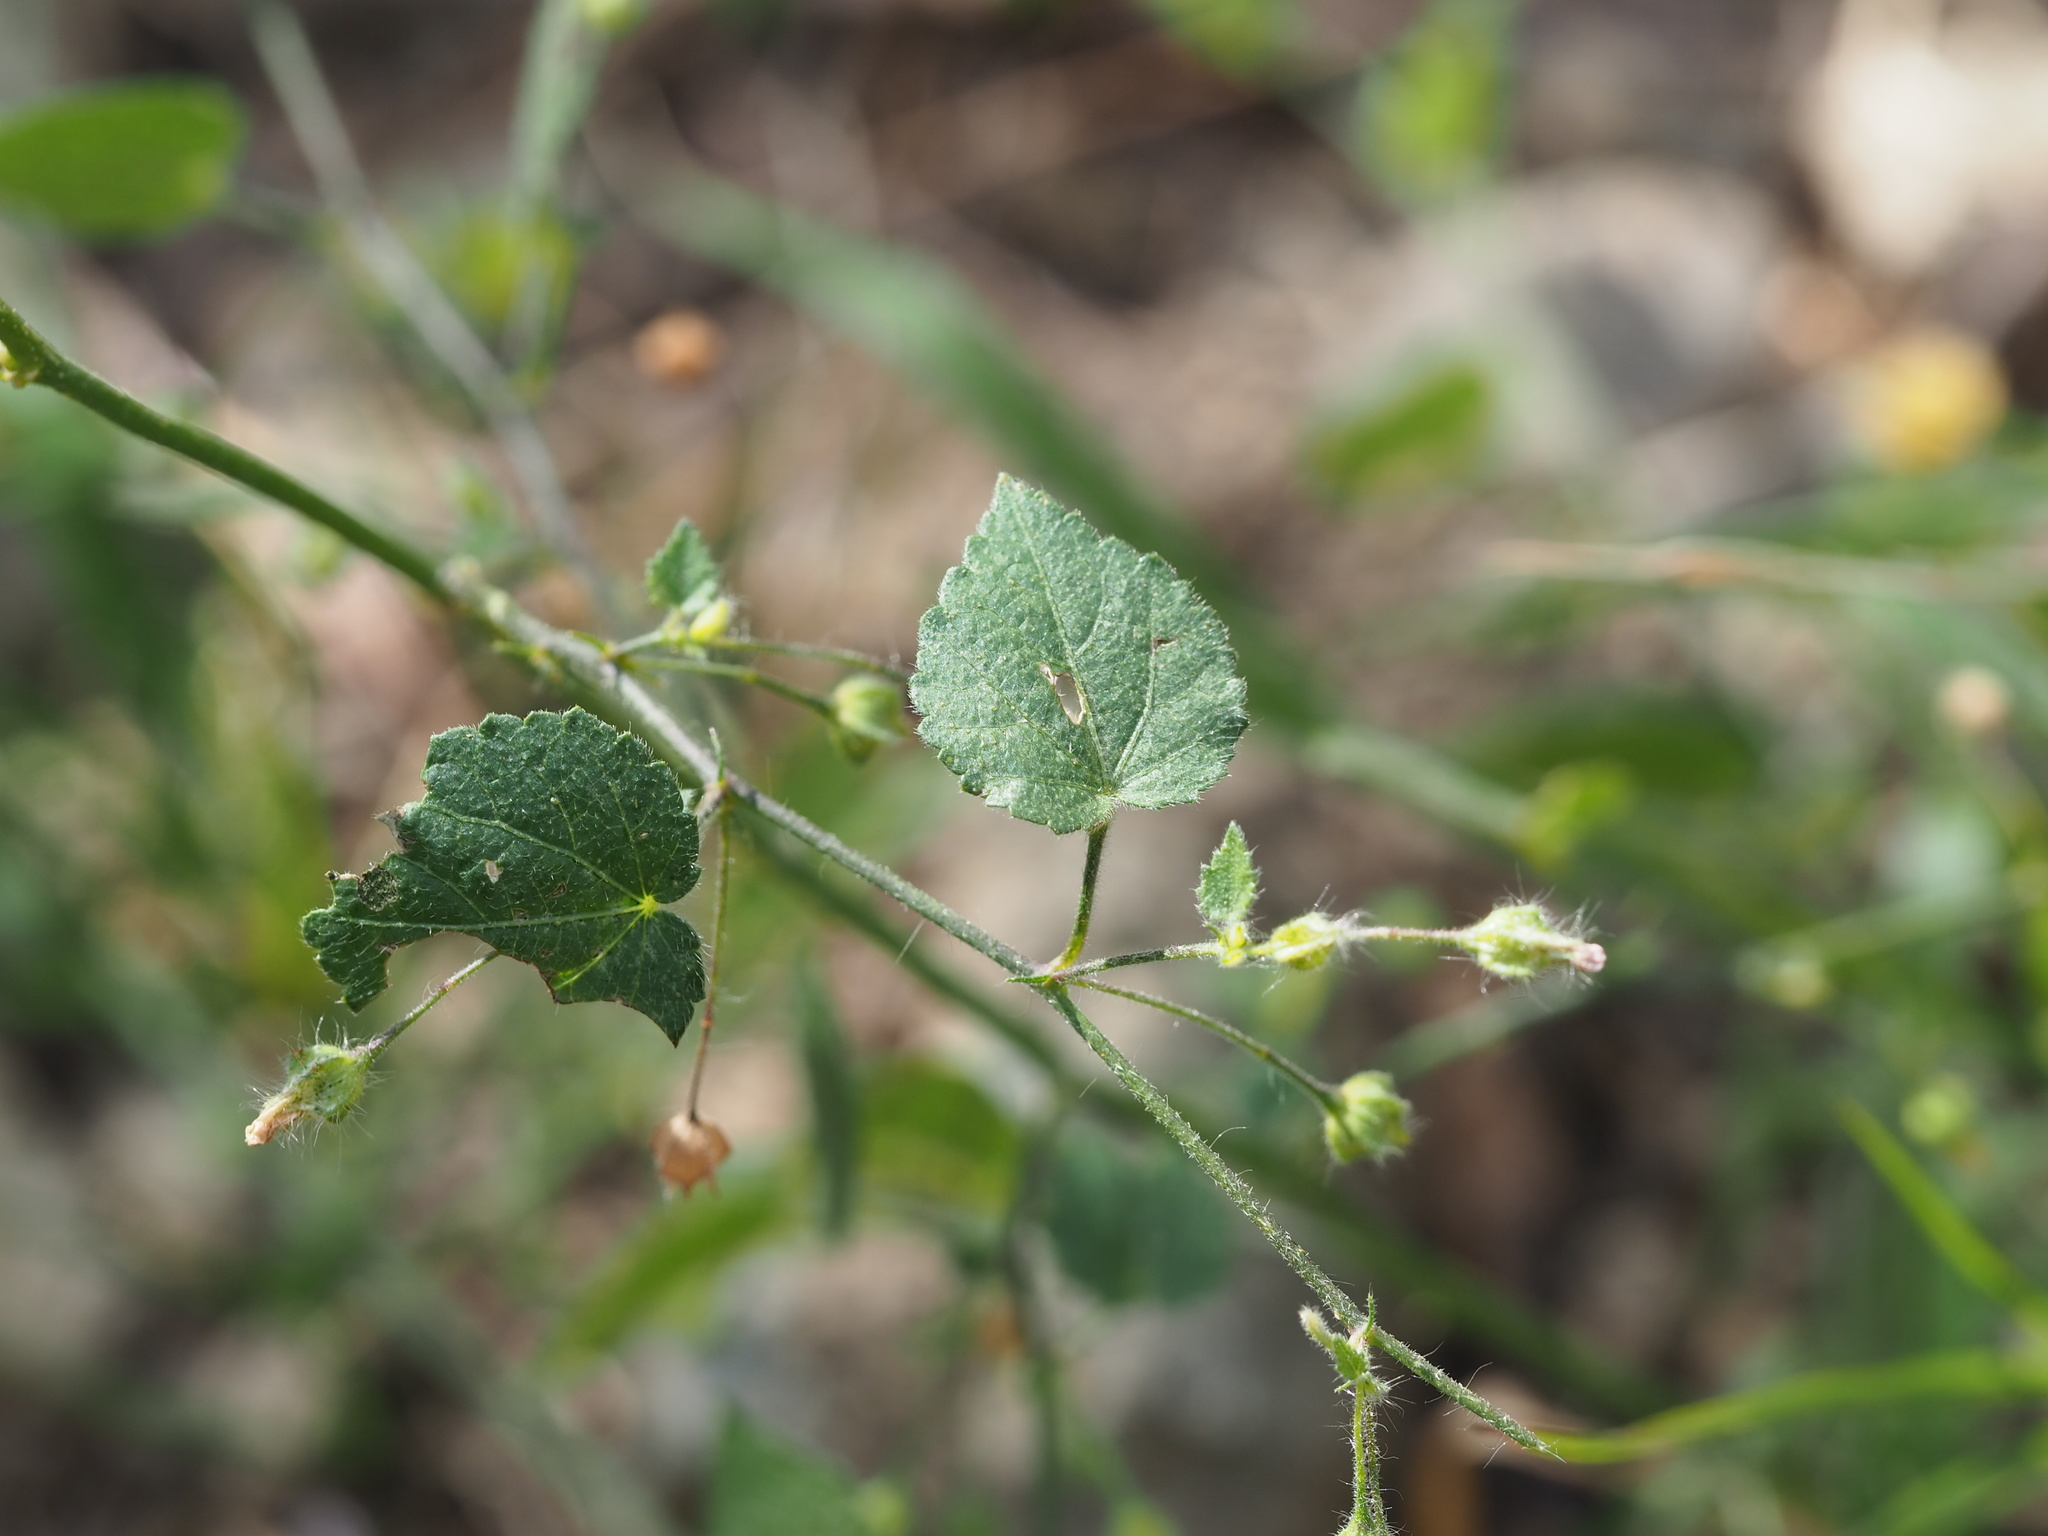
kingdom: Plantae
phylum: Tracheophyta
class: Magnoliopsida
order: Malvales
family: Malvaceae
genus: Sida
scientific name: Sida cordata
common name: Long-stalk sida
